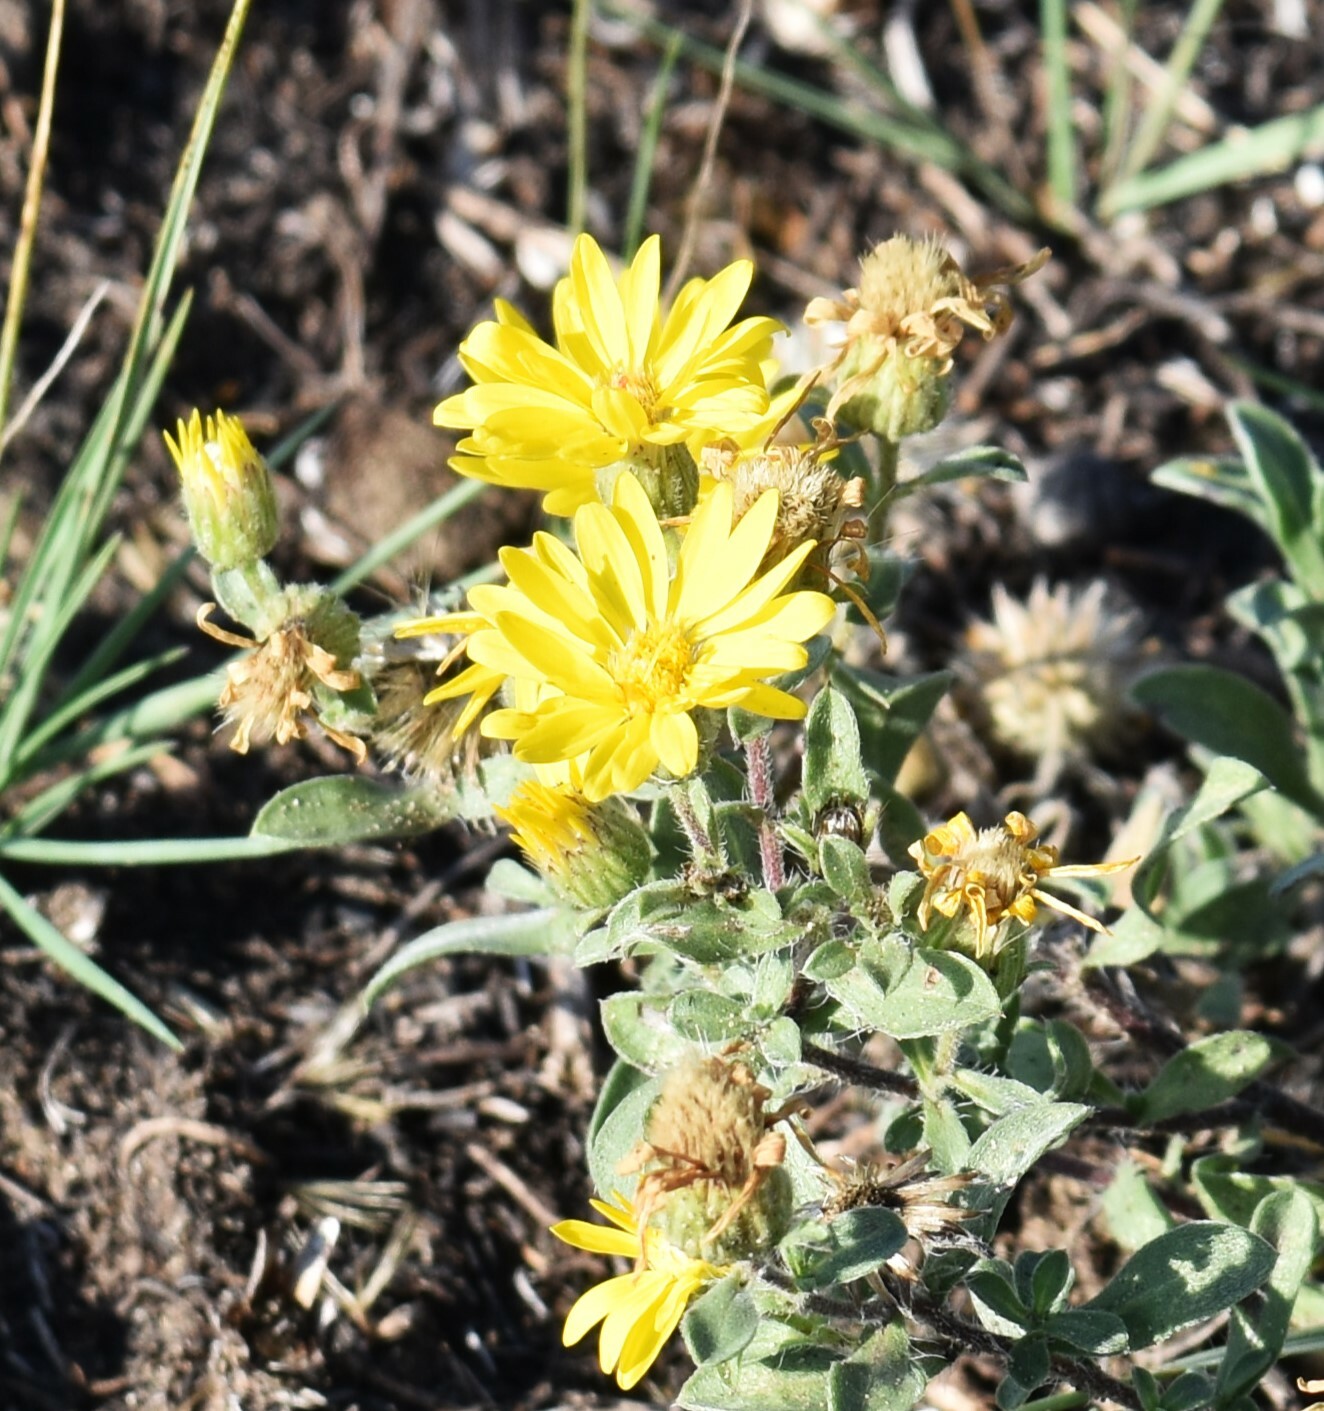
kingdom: Plantae
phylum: Tracheophyta
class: Magnoliopsida
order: Asterales
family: Asteraceae
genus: Heterotheca
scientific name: Heterotheca villosa
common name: Hairy false goldenaster
